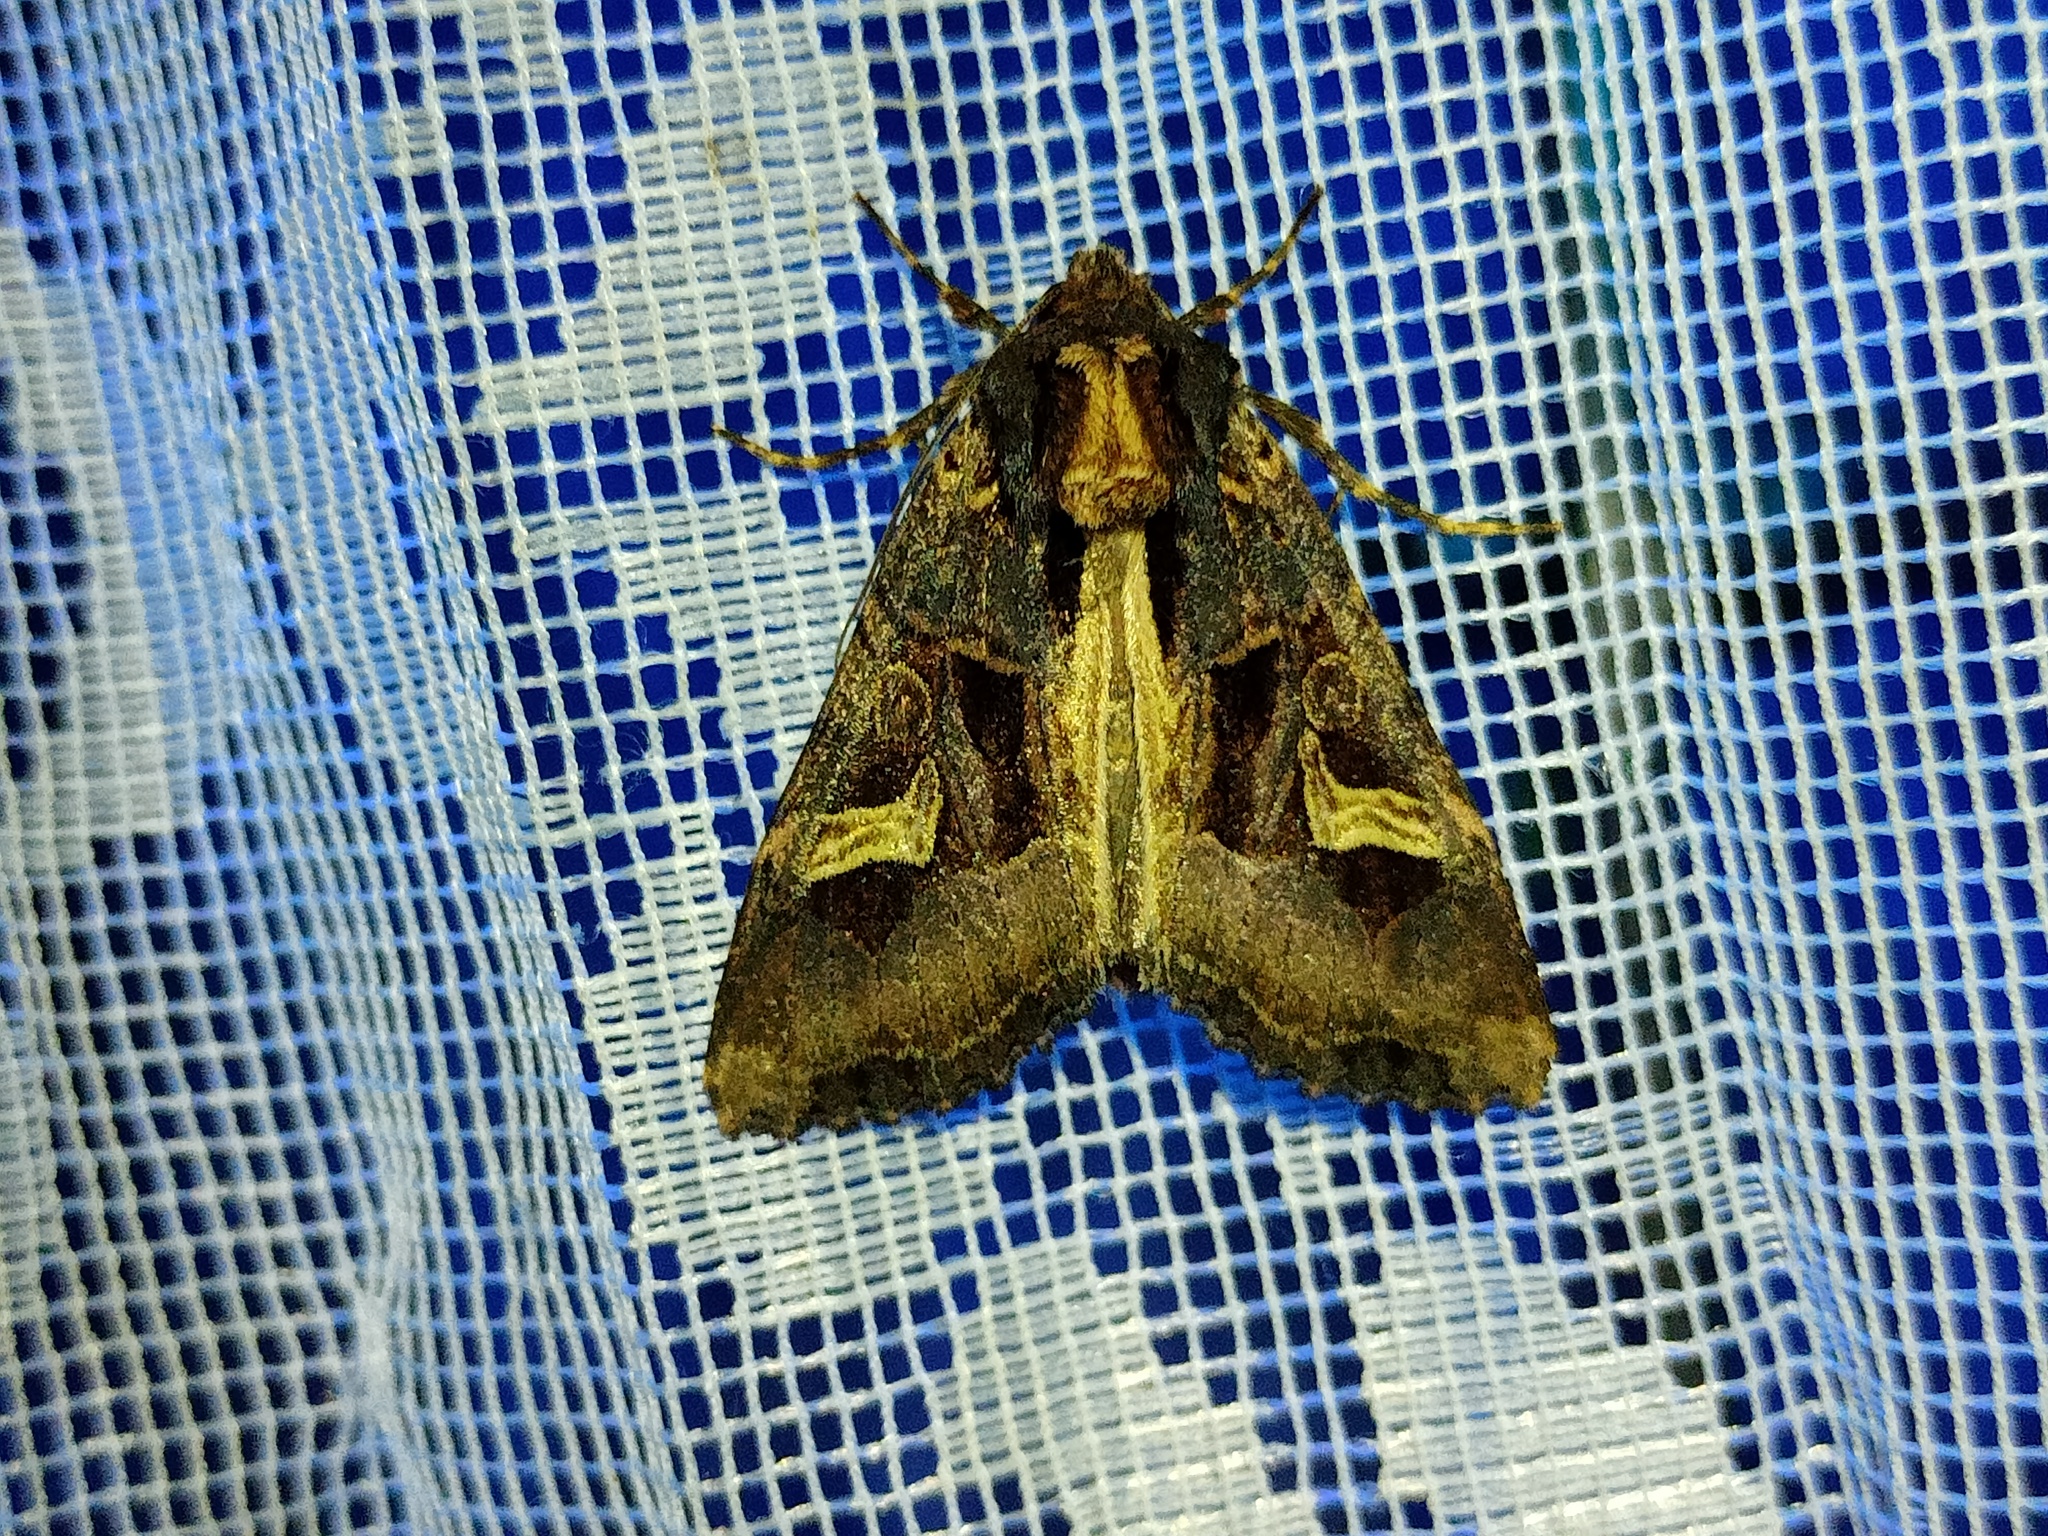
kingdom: Animalia
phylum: Arthropoda
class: Insecta
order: Lepidoptera
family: Noctuidae
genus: Trigonophora
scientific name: Trigonophora flammea
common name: Flame brocade
